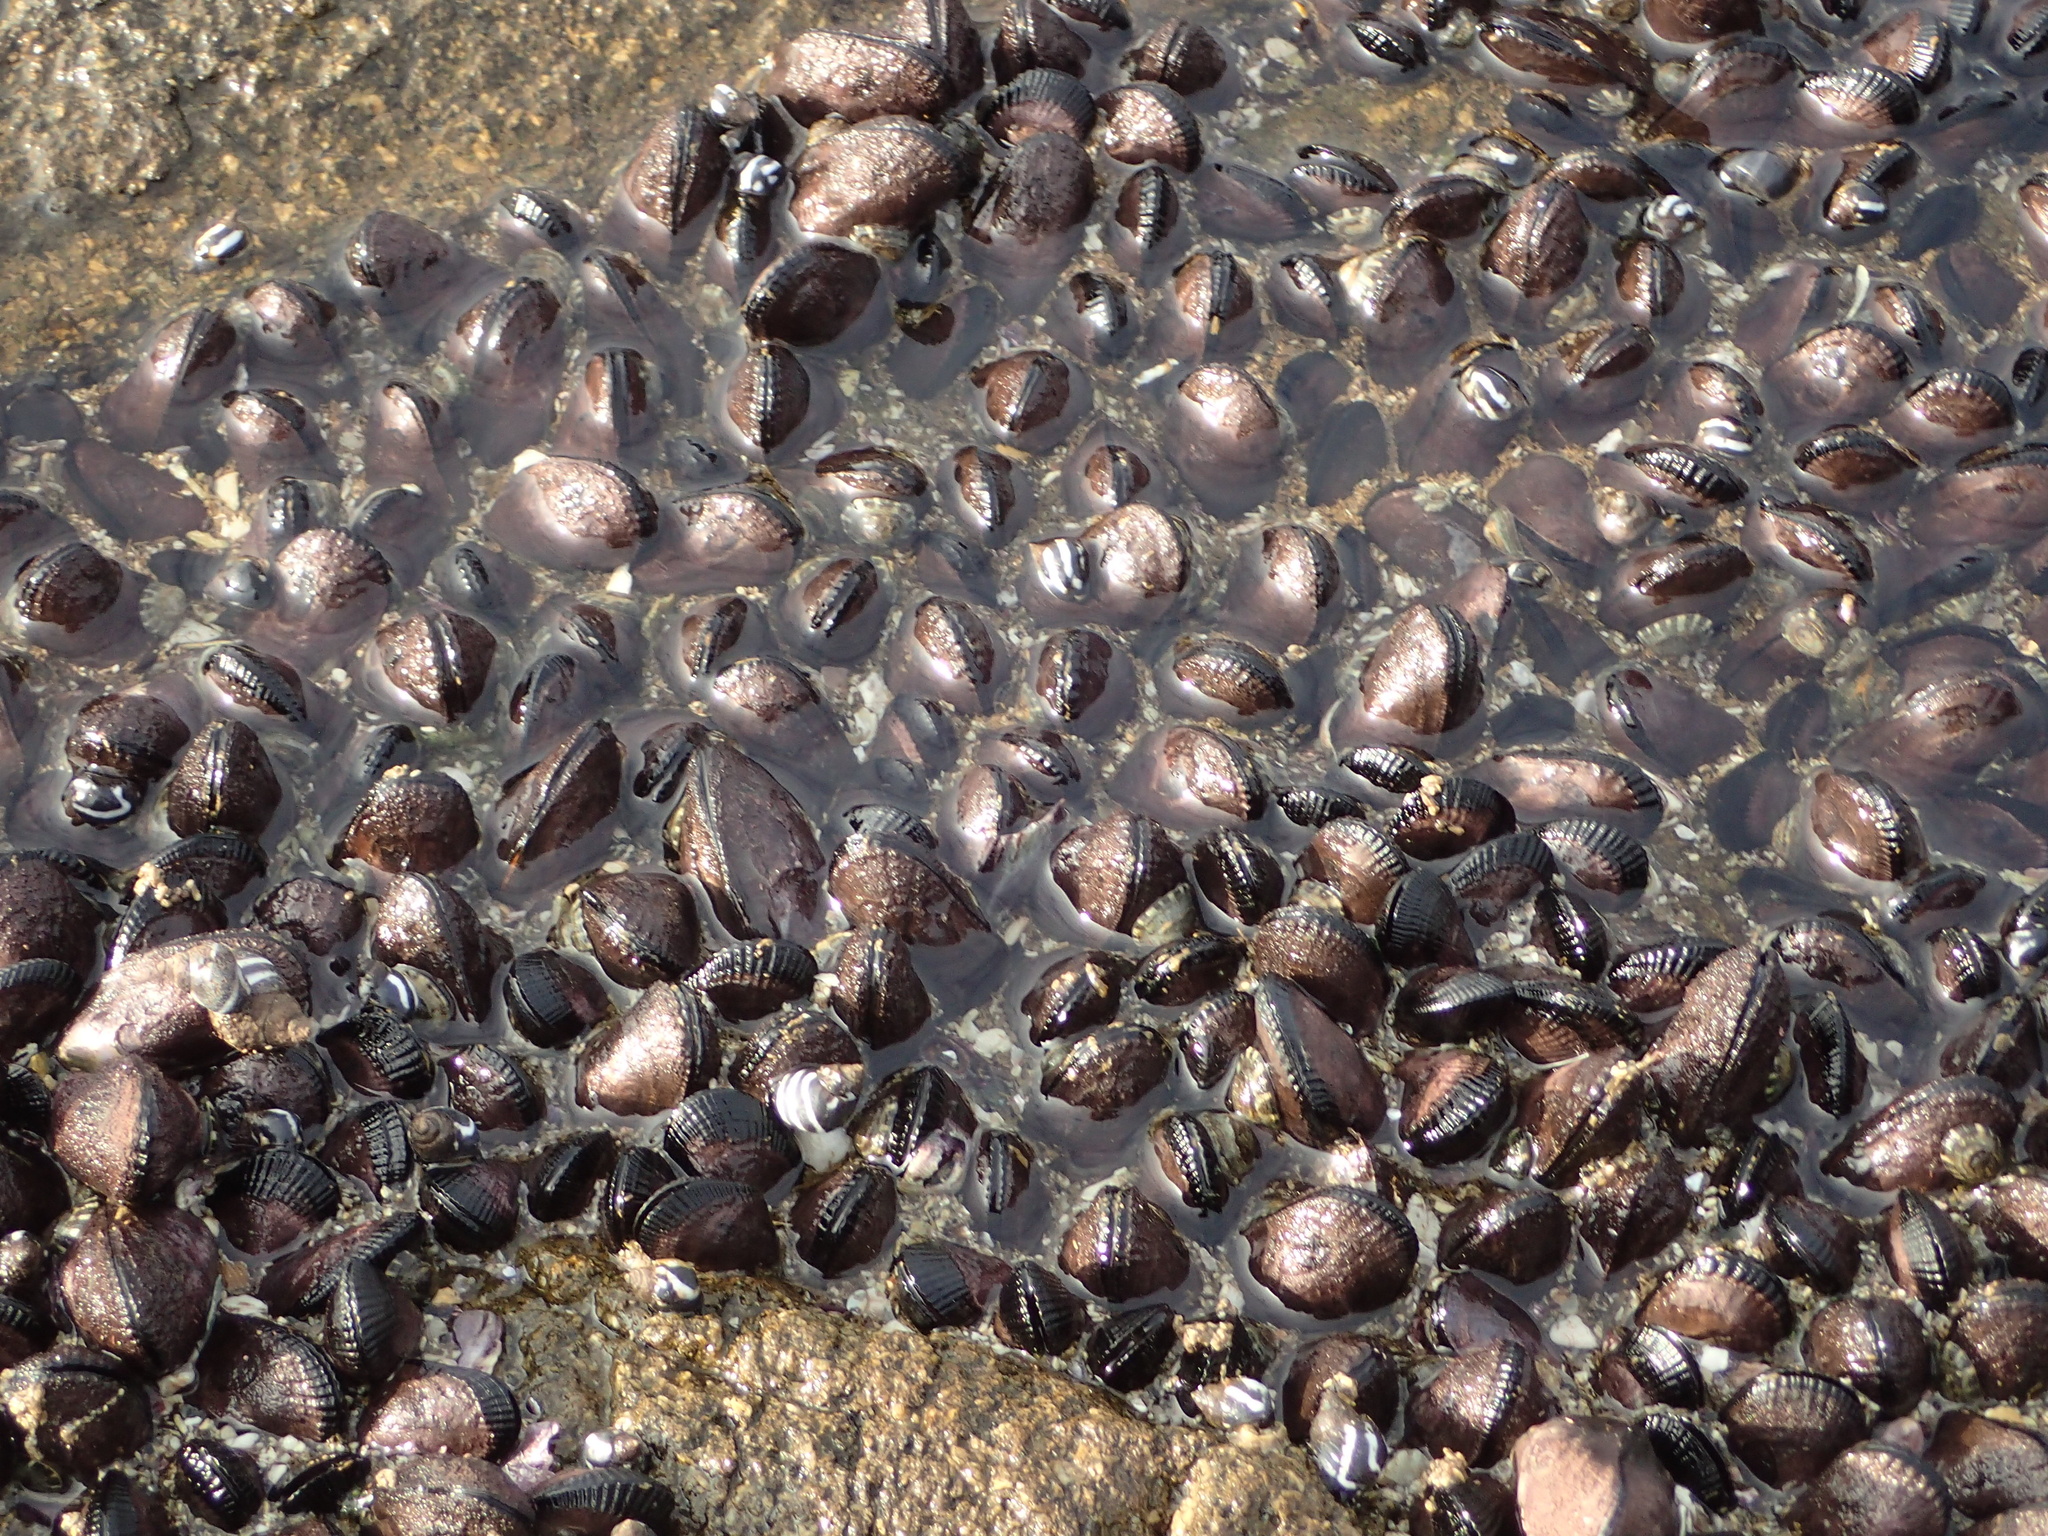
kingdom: Animalia
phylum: Mollusca
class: Bivalvia
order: Mytilida
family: Mytilidae
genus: Perumytilus
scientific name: Perumytilus purpuratus
